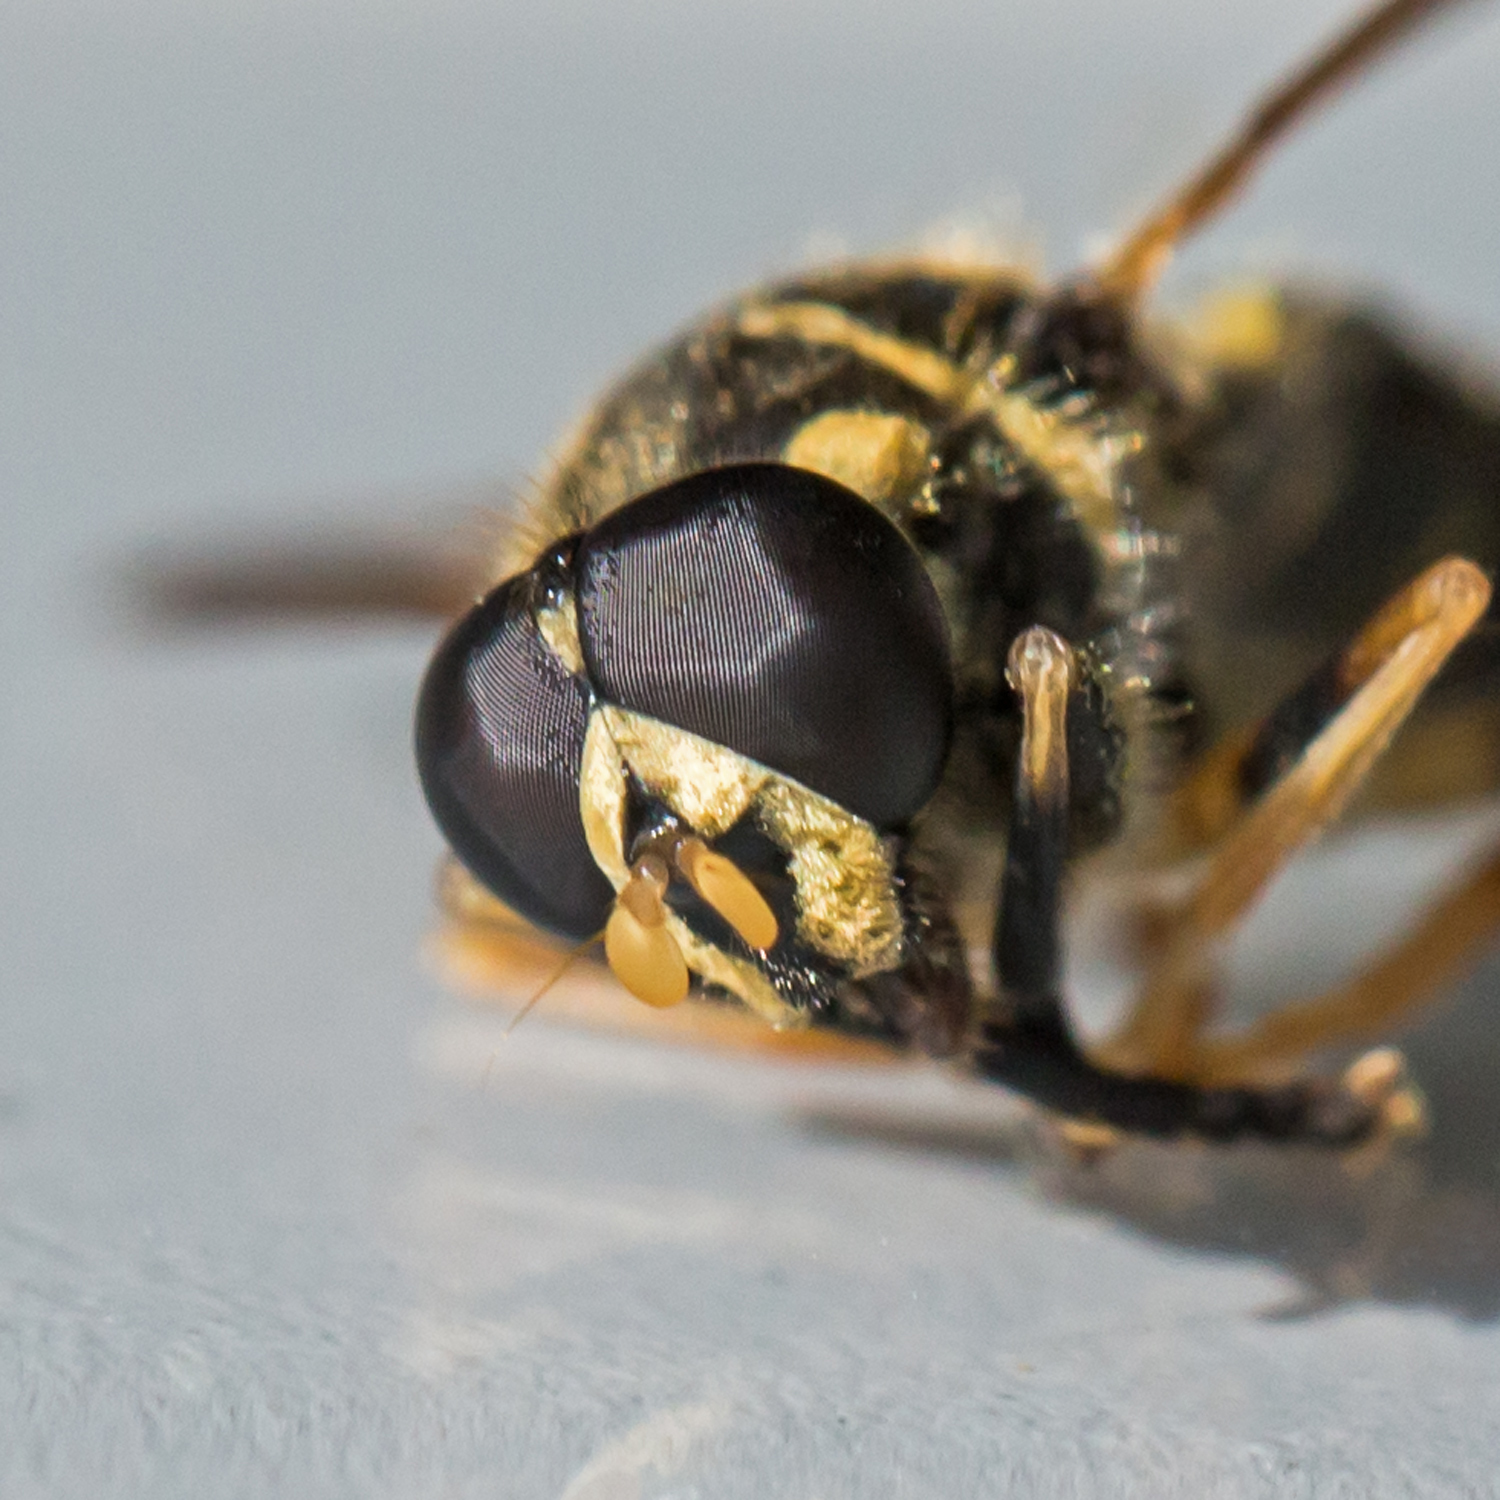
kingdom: Animalia
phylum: Arthropoda
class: Insecta
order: Diptera
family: Syrphidae
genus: Temnostoma
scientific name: Temnostoma balyras
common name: Yellow-haired falsehorn
